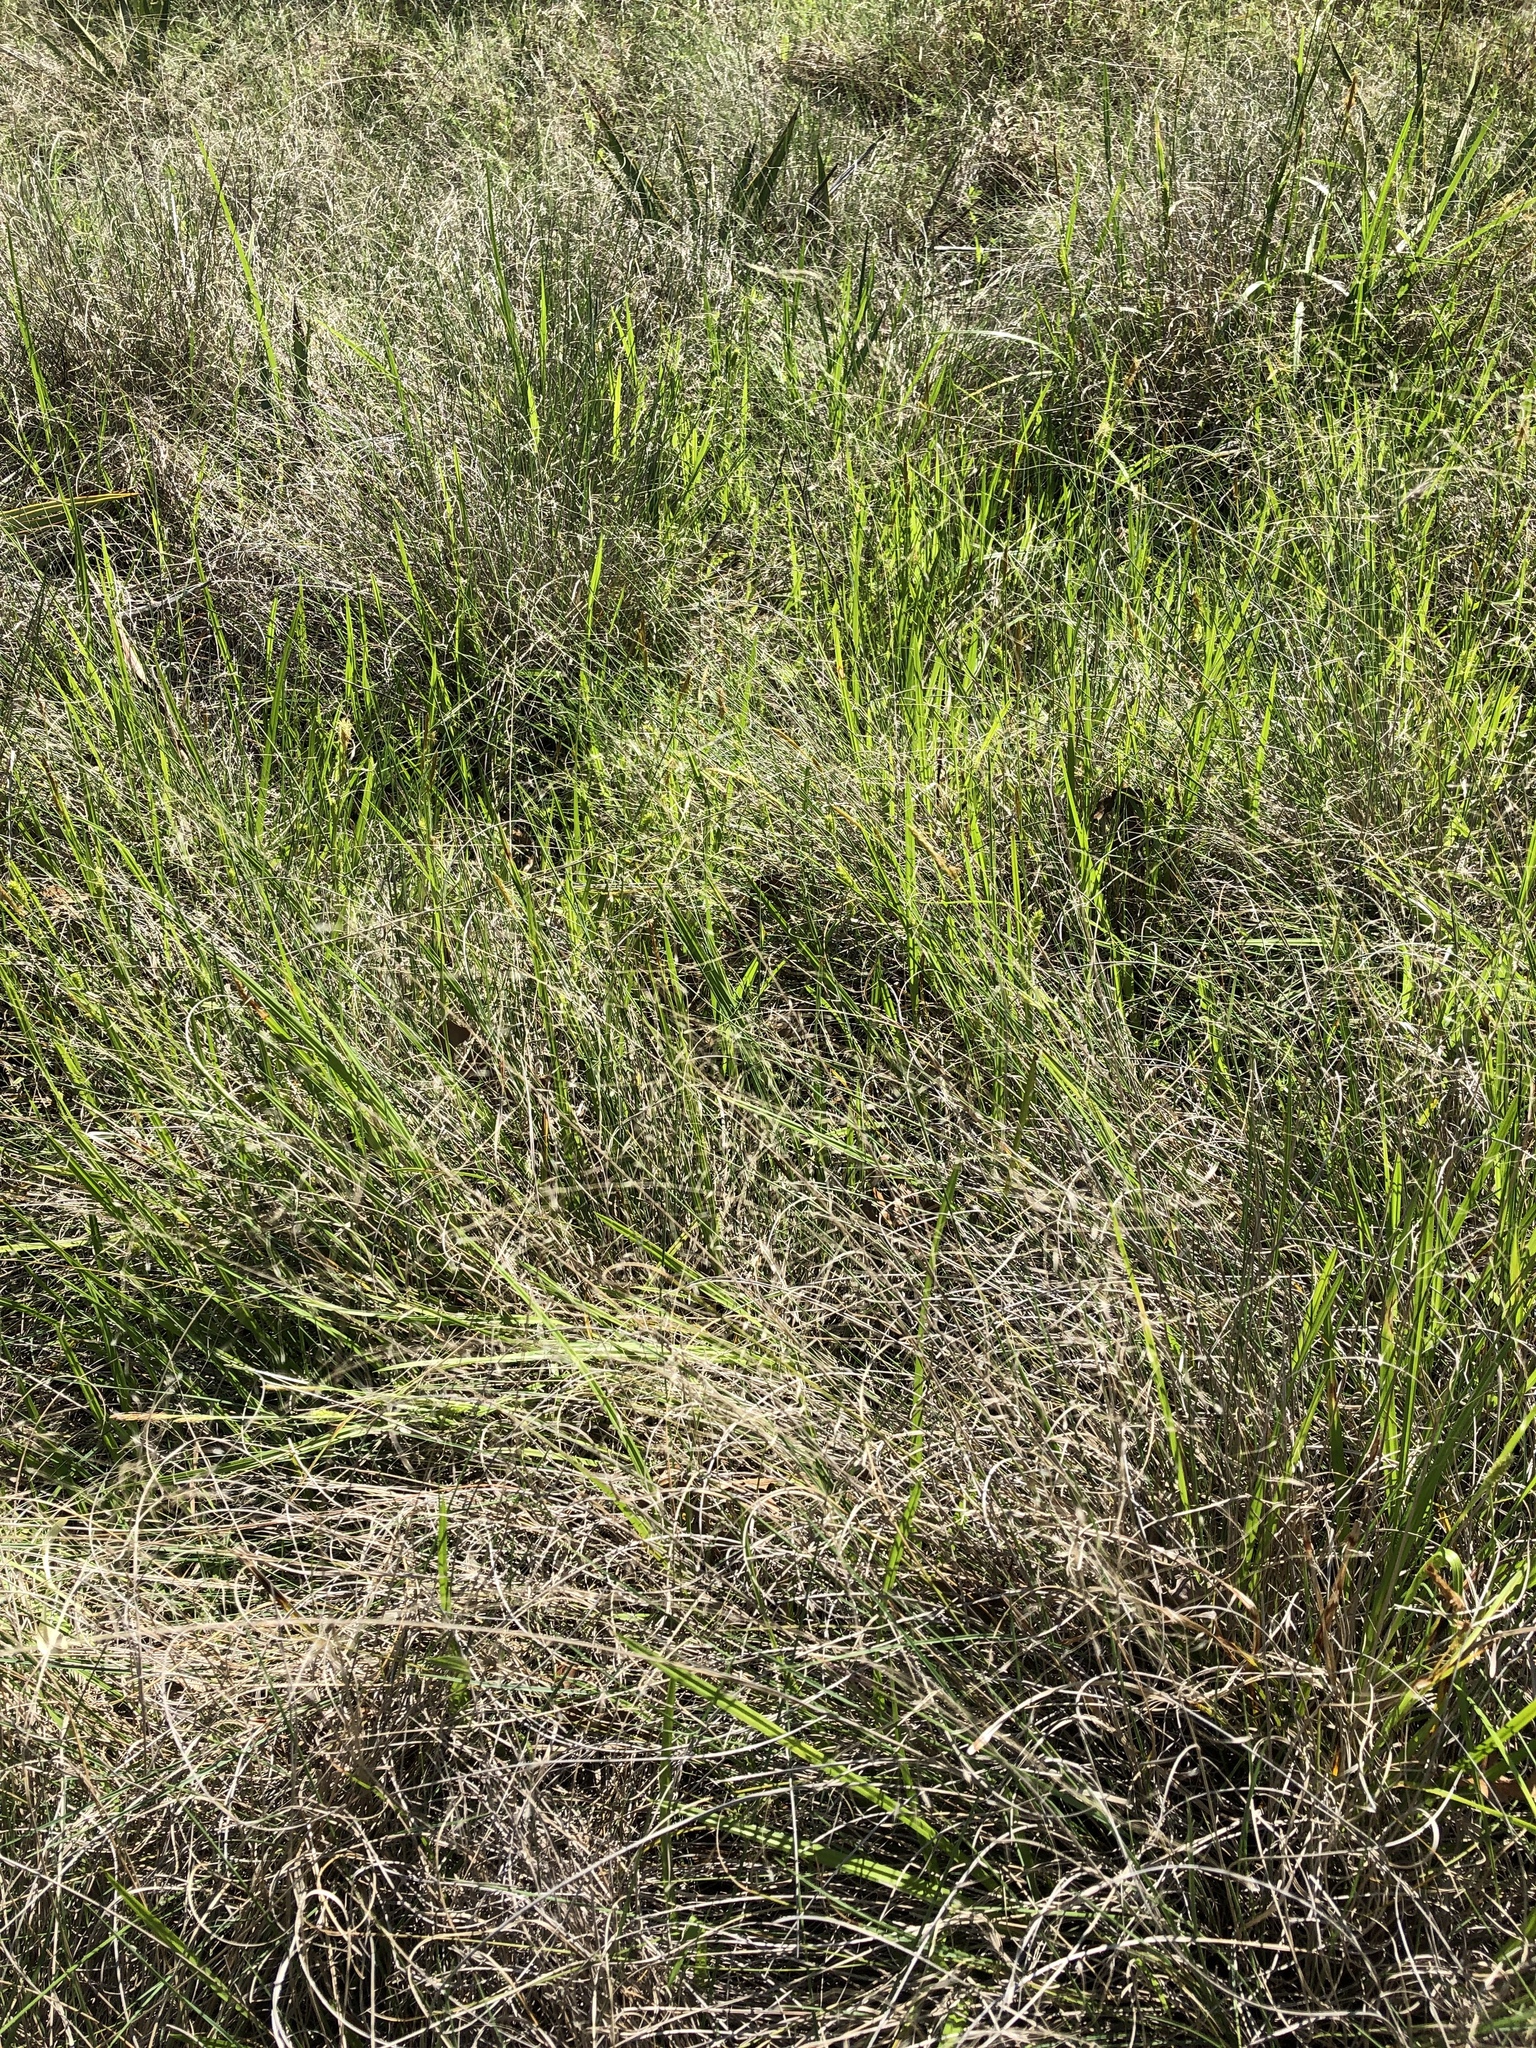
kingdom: Plantae
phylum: Tracheophyta
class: Liliopsida
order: Poales
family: Poaceae
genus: Muhlenbergia
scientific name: Muhlenbergia reverchonii
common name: Seep muhly
